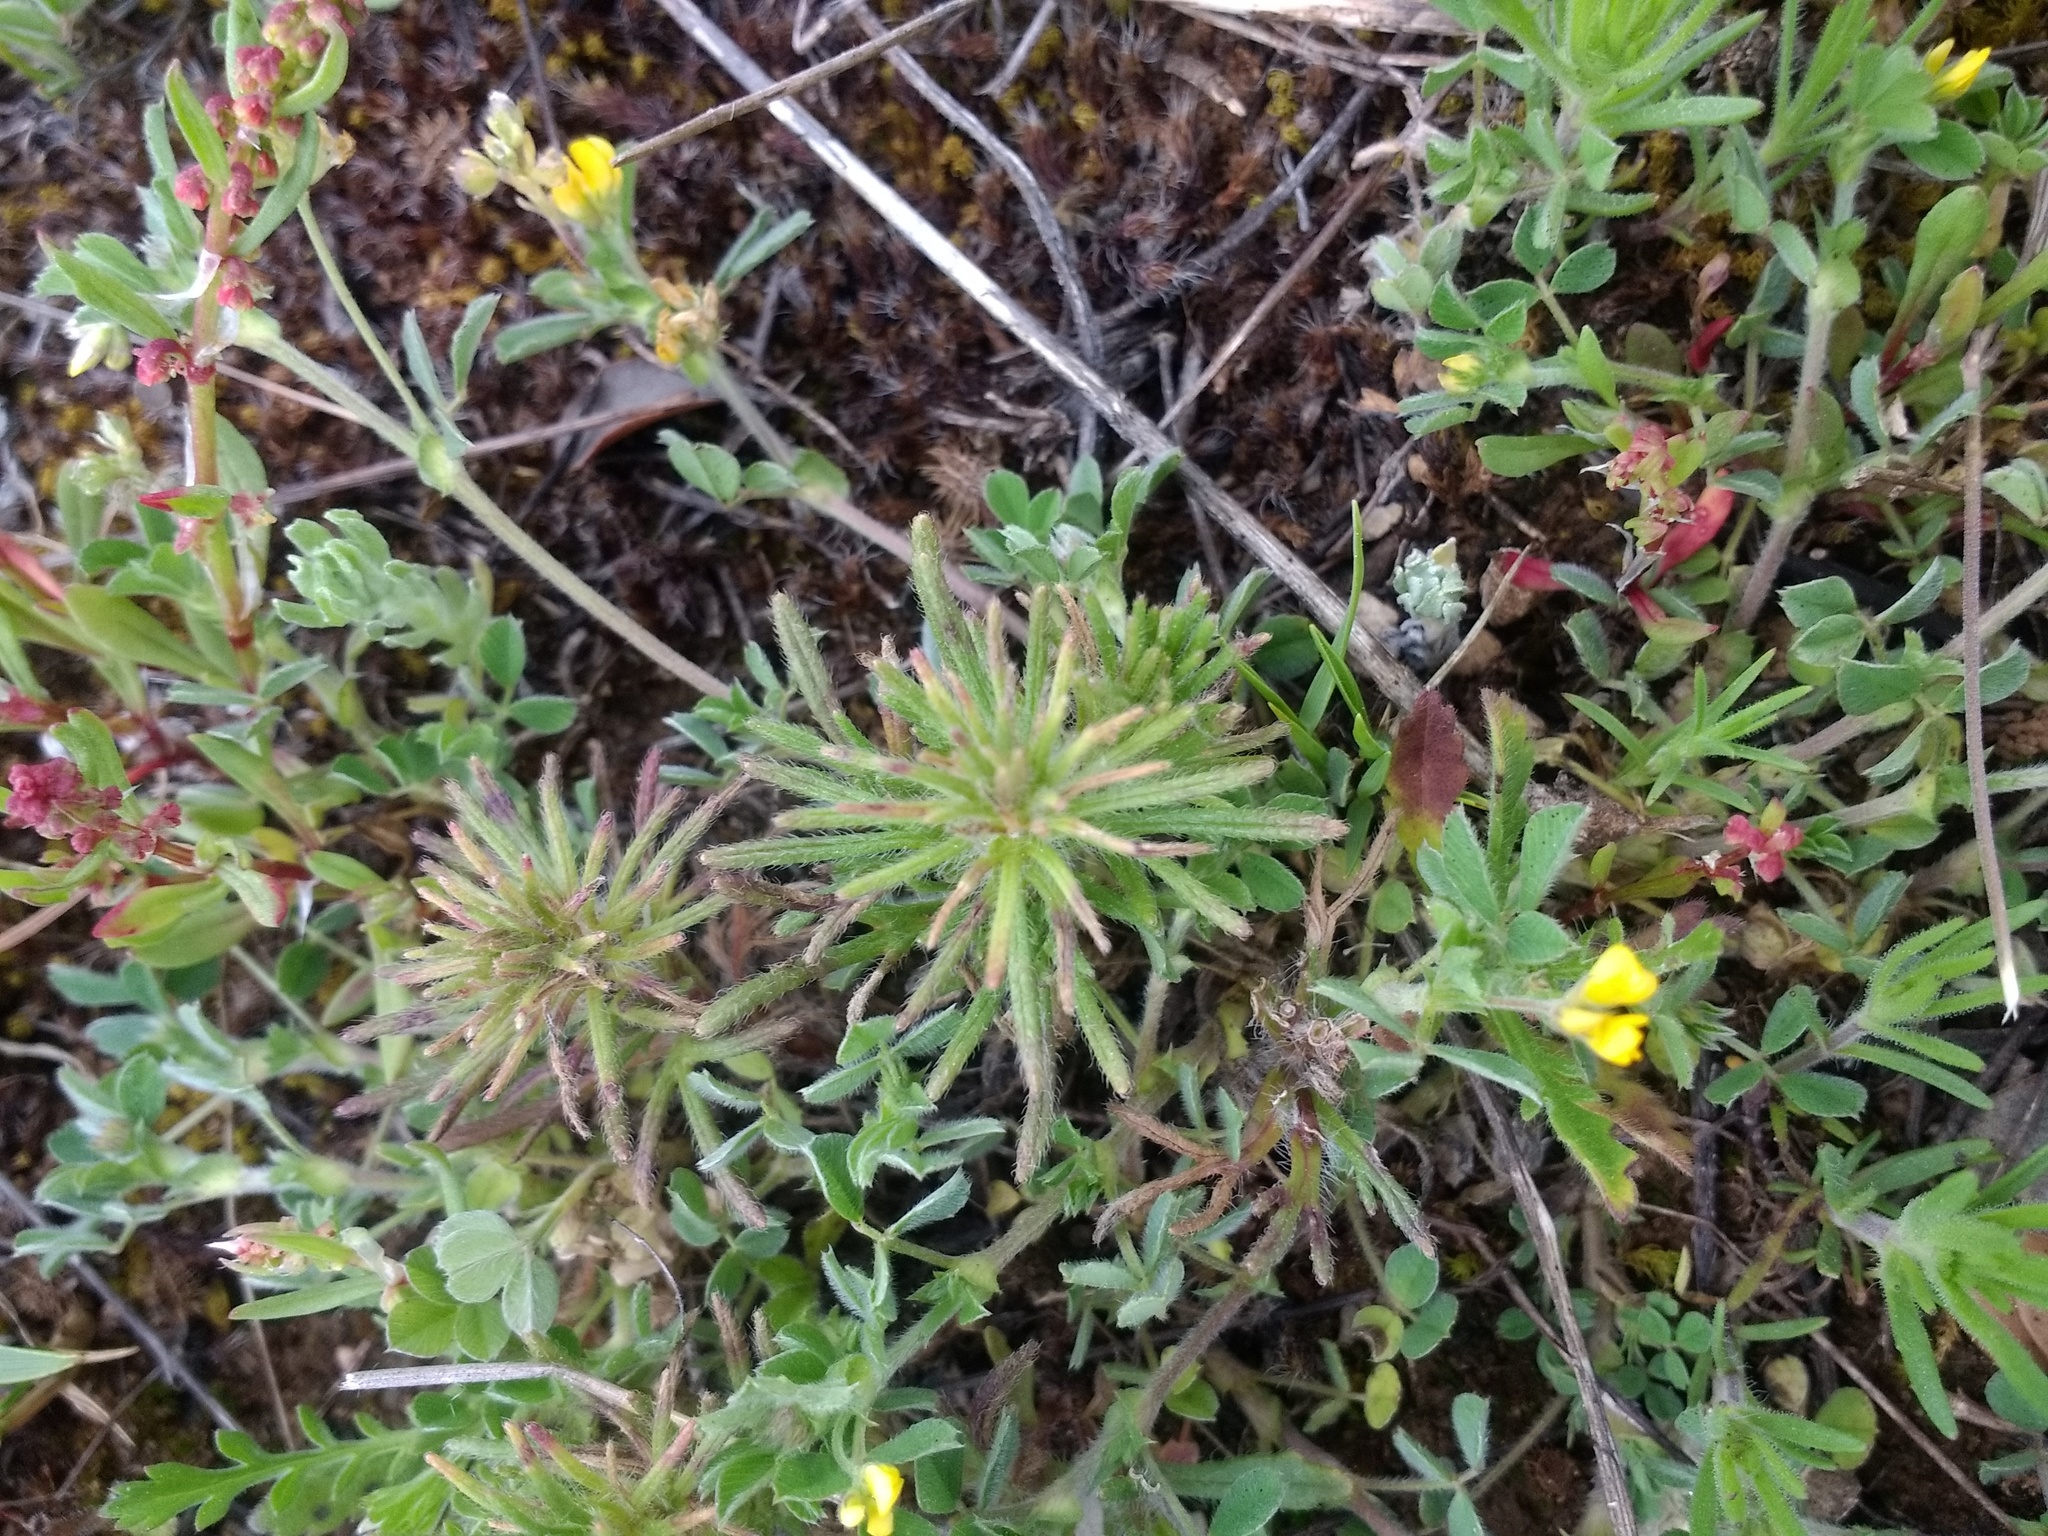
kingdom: Plantae
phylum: Tracheophyta
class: Magnoliopsida
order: Lamiales
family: Lamiaceae
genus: Ajuga
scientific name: Ajuga chamaepitys
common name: Ground-pine
